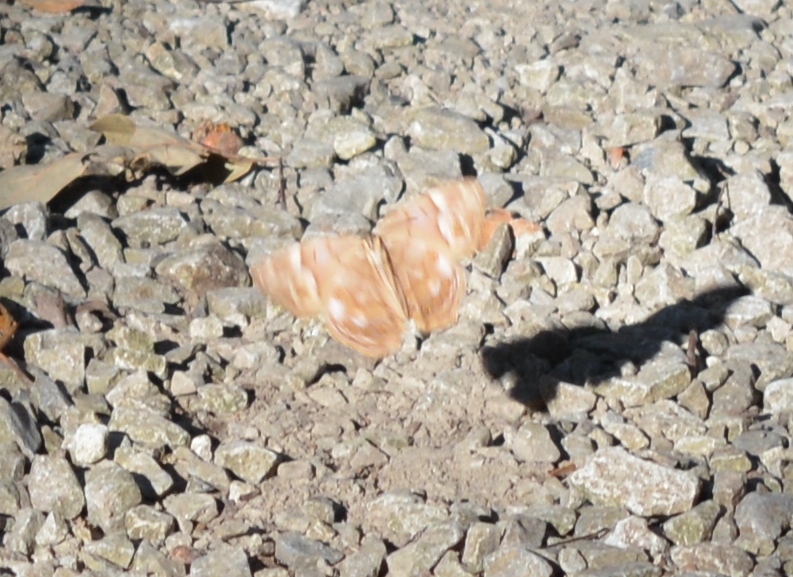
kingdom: Animalia
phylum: Arthropoda
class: Insecta
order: Lepidoptera
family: Nymphalidae
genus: Enodia
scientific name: Enodia portlandia
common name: Southern pearly-eye
